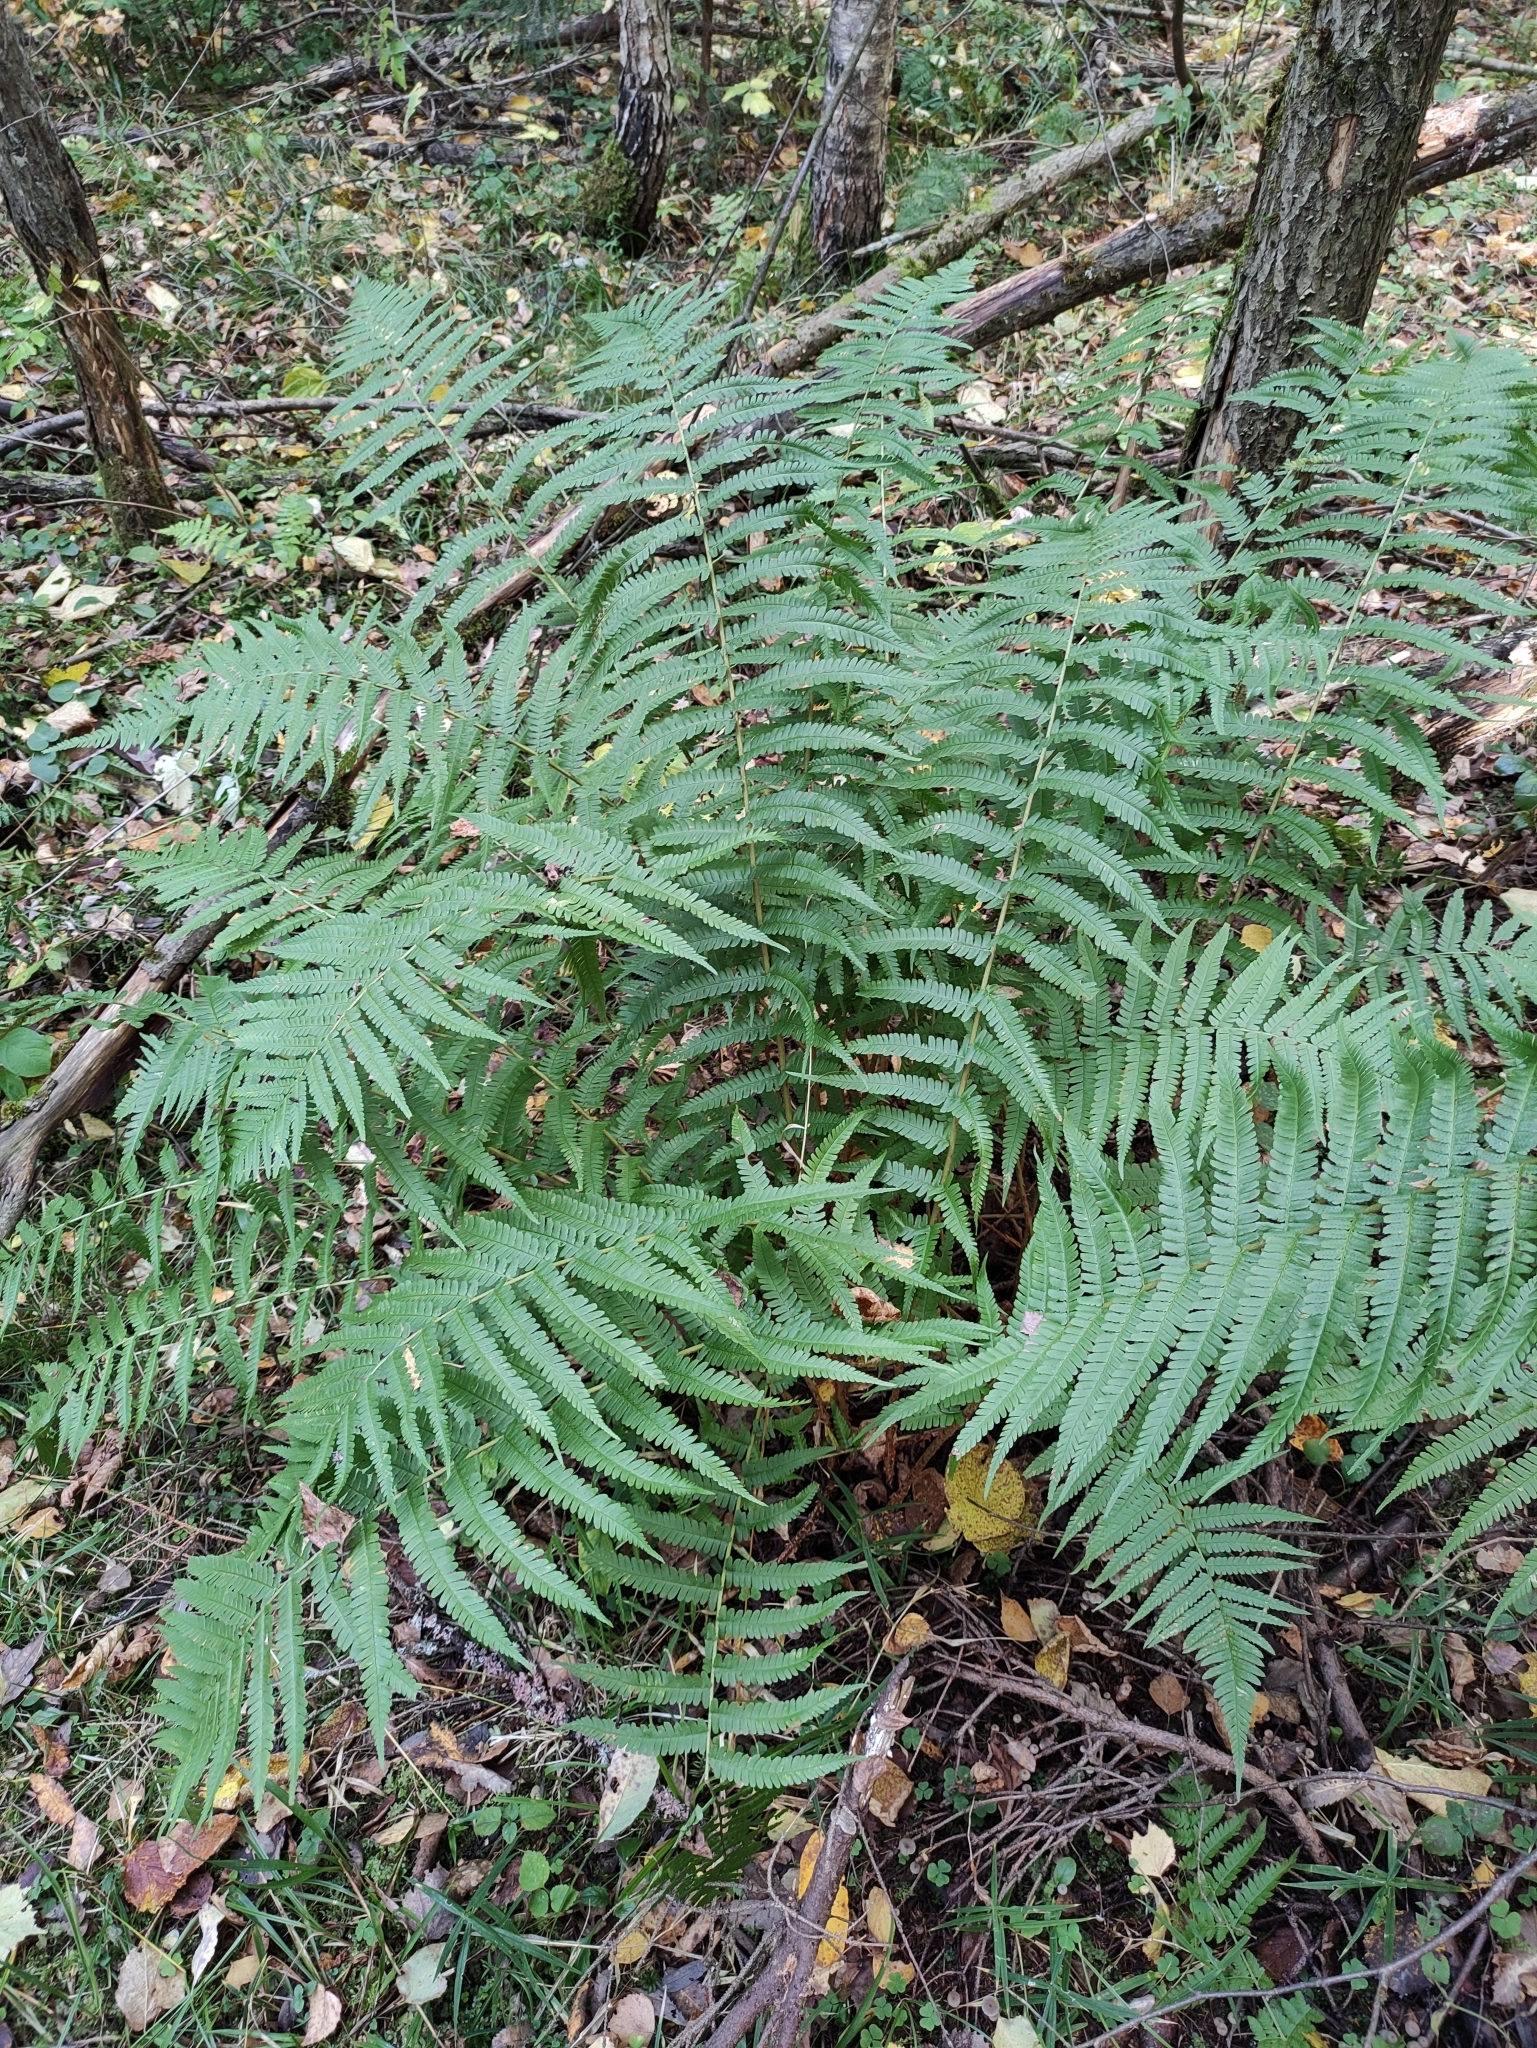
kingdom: Plantae
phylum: Tracheophyta
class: Polypodiopsida
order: Polypodiales
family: Dryopteridaceae
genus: Dryopteris
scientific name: Dryopteris filix-mas
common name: Male fern
